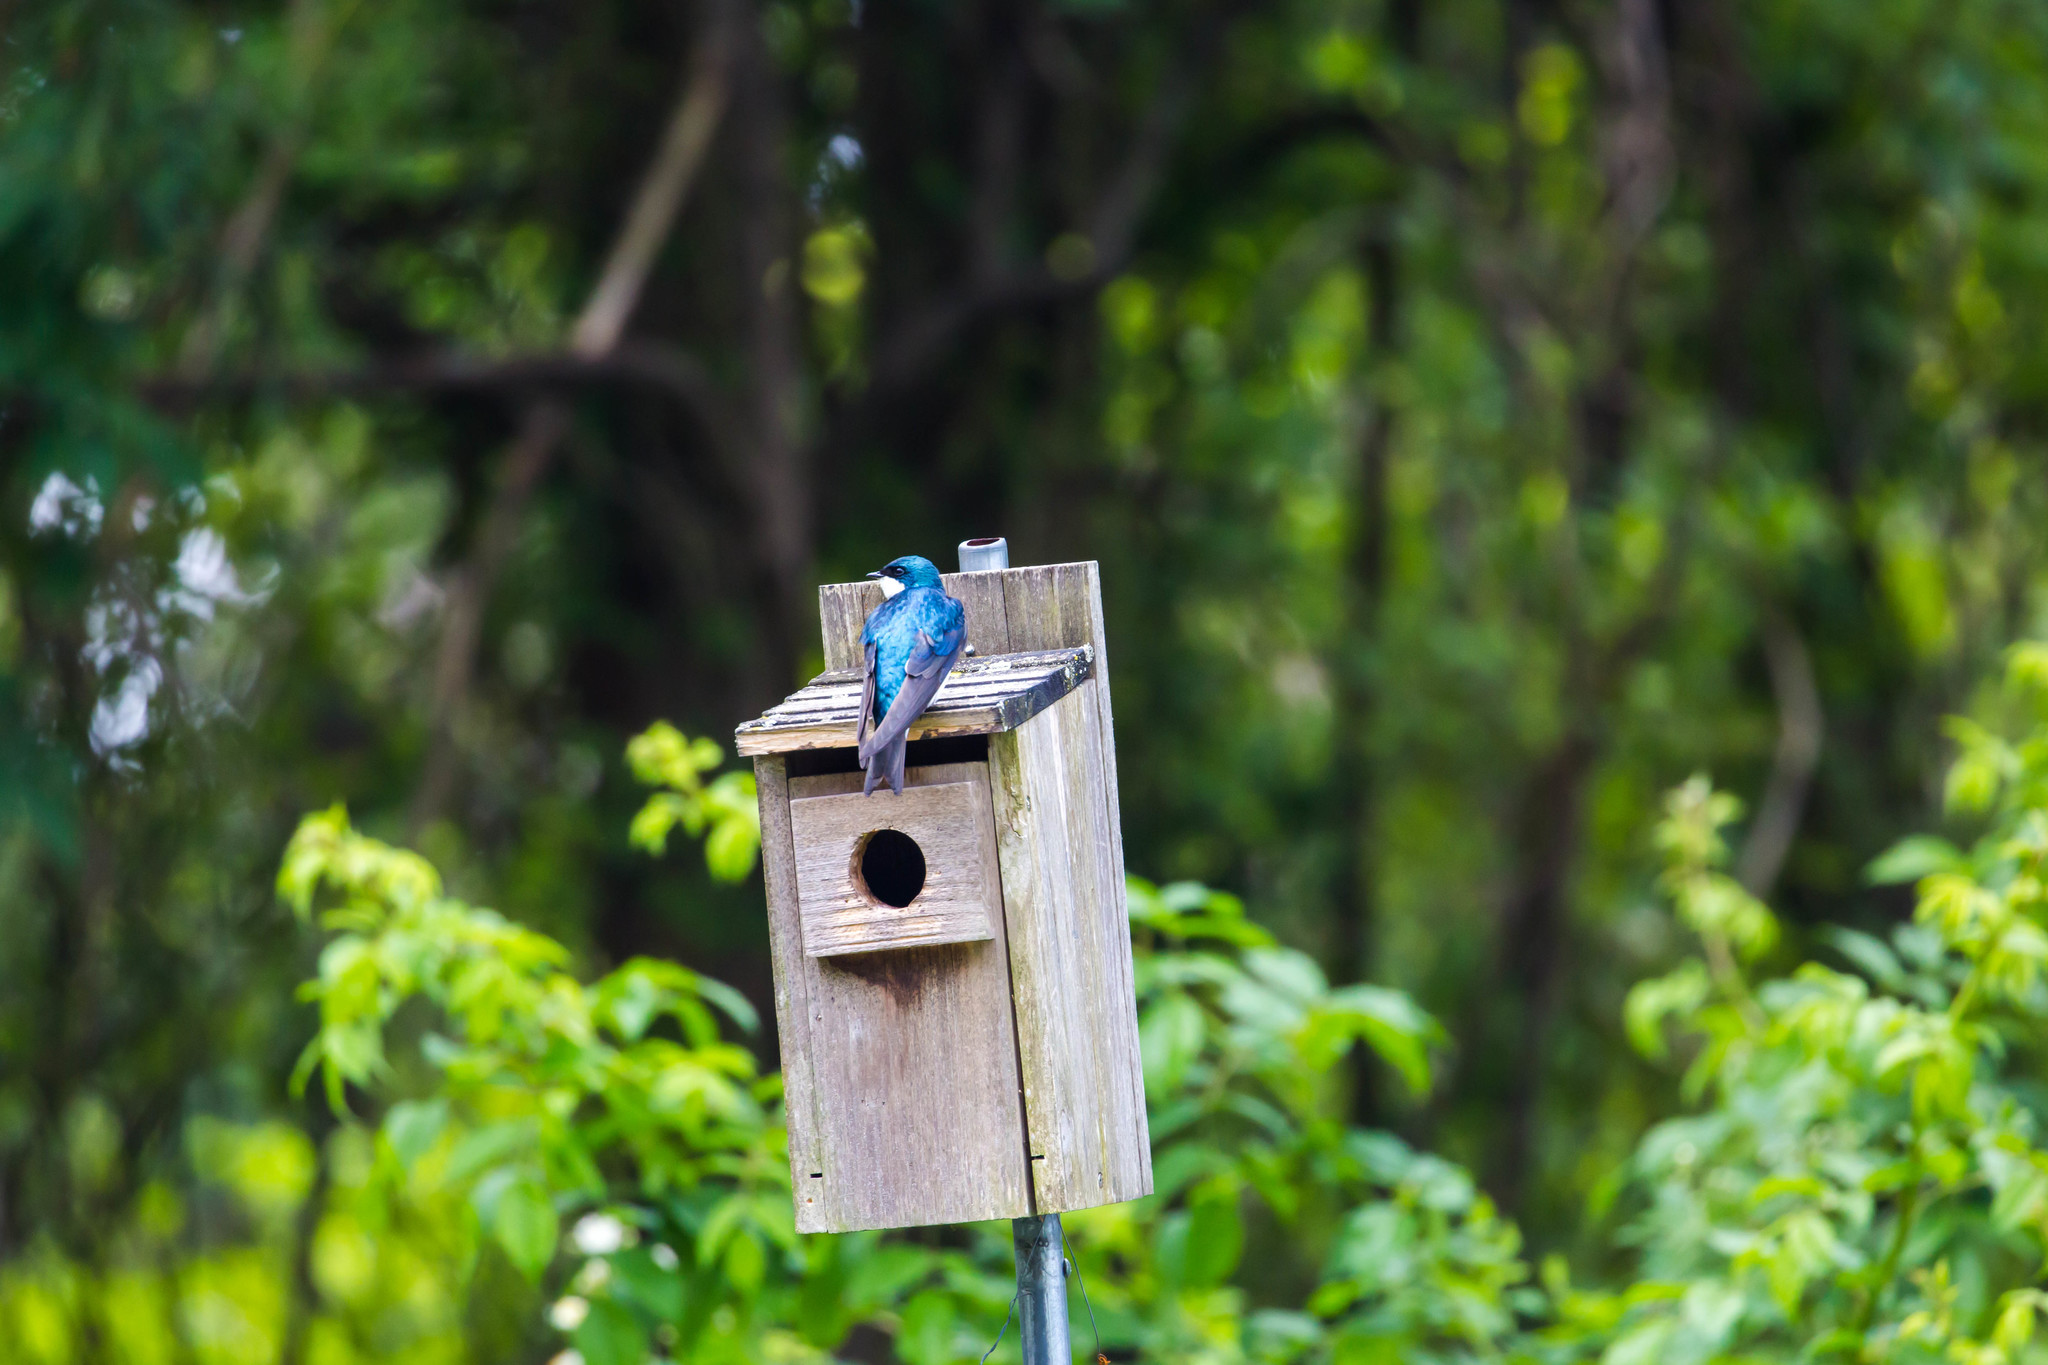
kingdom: Animalia
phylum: Chordata
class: Aves
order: Passeriformes
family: Hirundinidae
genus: Tachycineta
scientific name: Tachycineta bicolor
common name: Tree swallow
